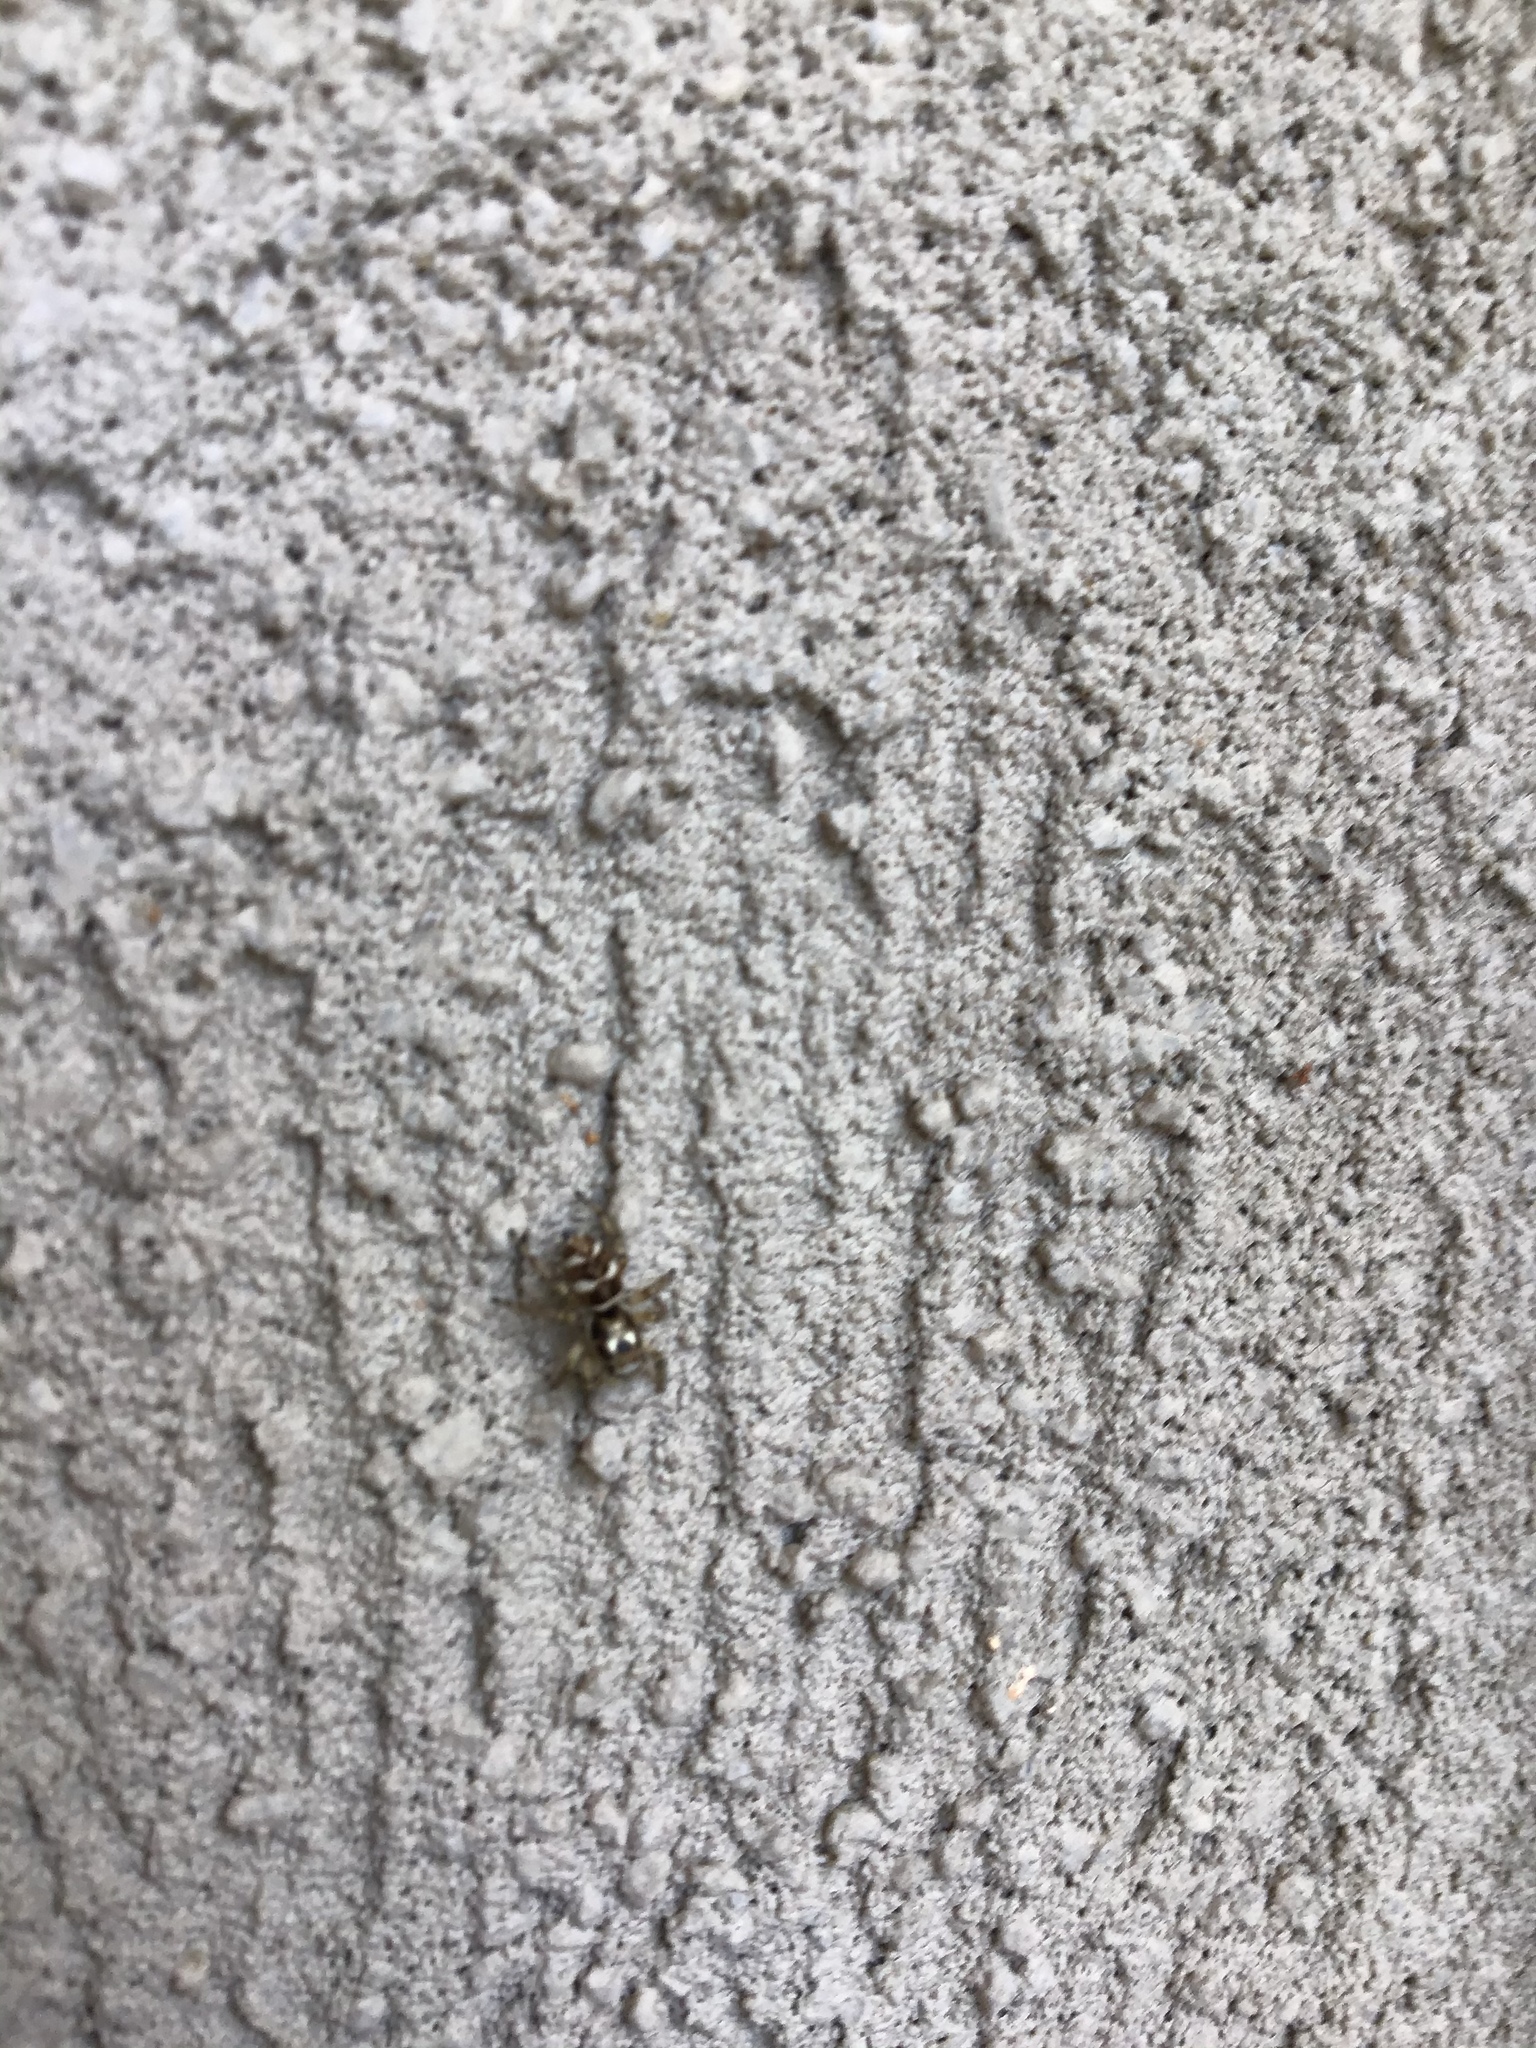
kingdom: Animalia
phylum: Arthropoda
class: Arachnida
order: Araneae
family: Salticidae
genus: Salticus
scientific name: Salticus scenicus
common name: Zebra jumper
